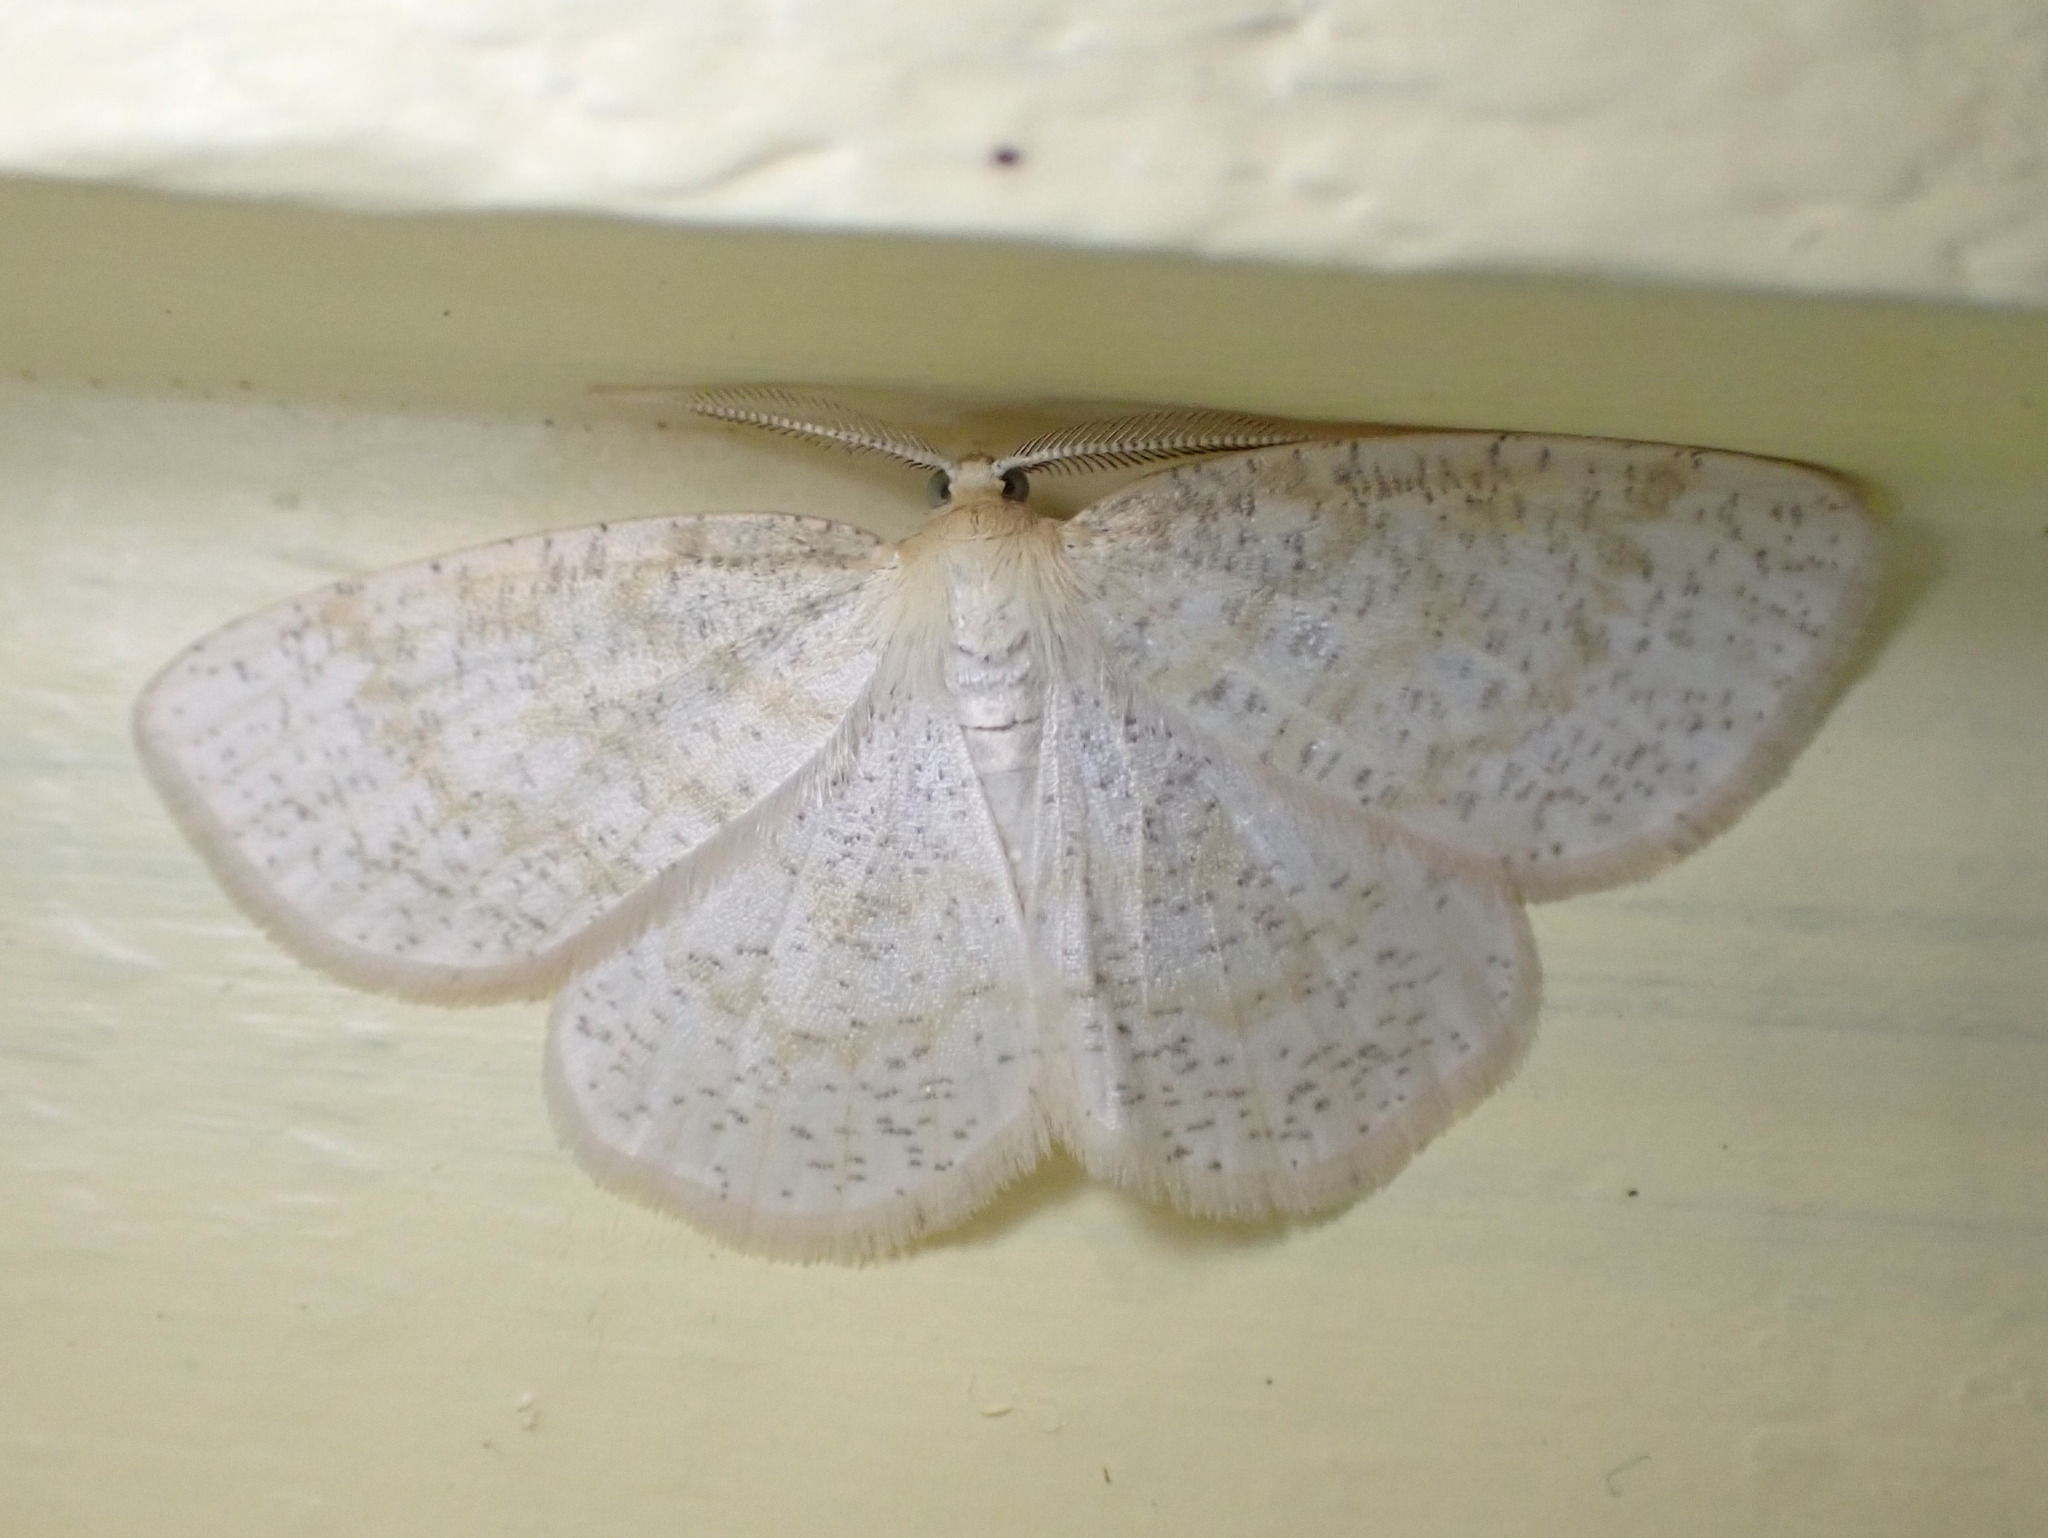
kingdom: Animalia
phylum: Arthropoda
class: Insecta
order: Lepidoptera
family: Geometridae
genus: Cabera
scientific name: Cabera erythemaria
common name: Yellow-dusted cream moth
